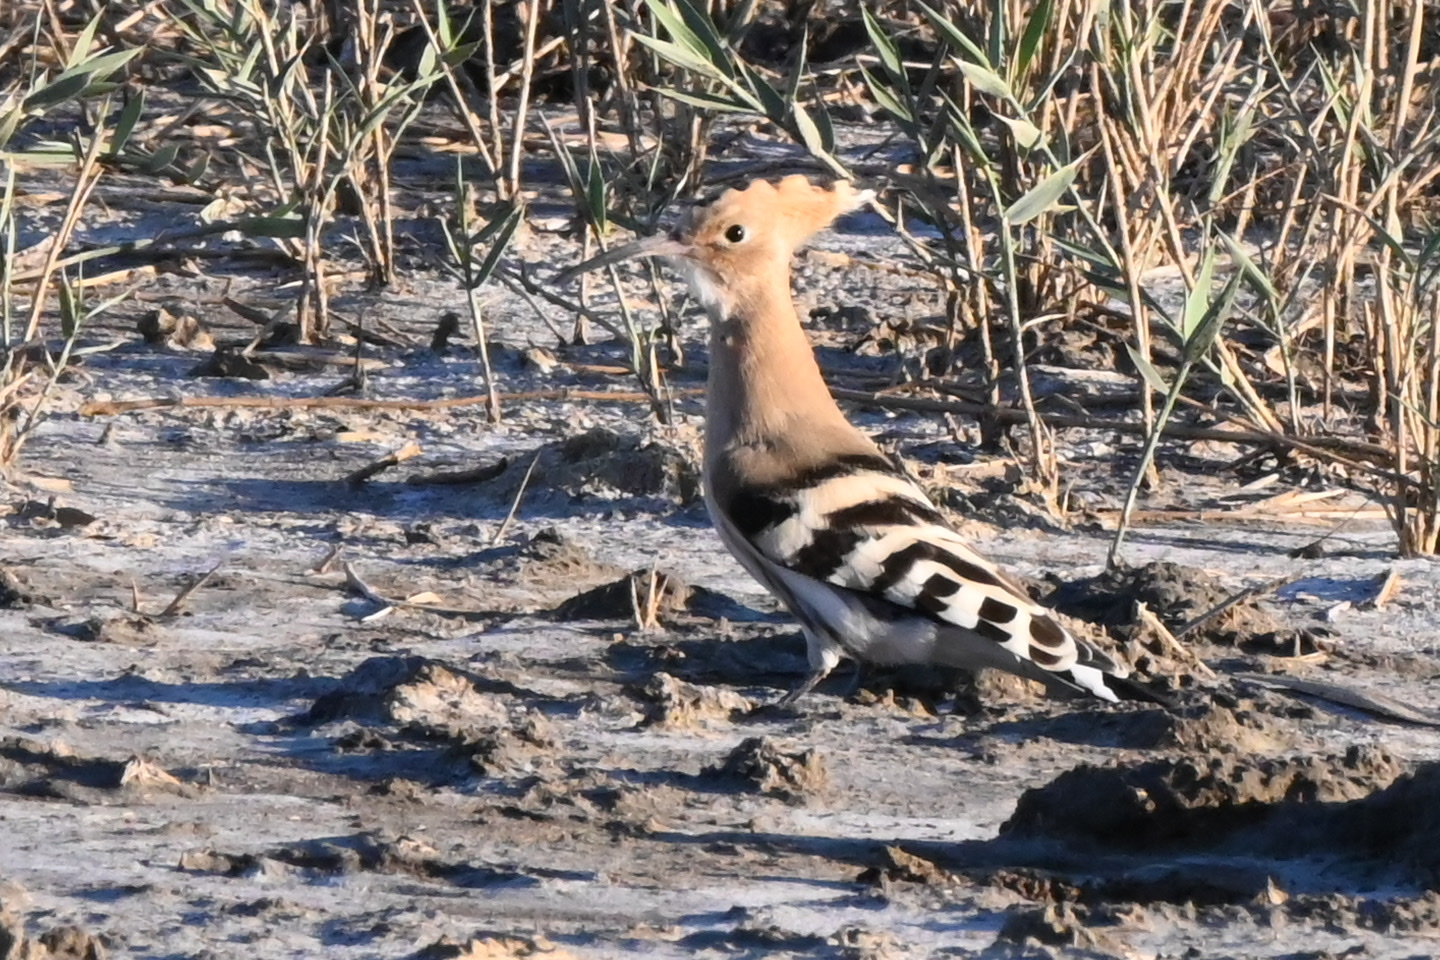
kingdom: Animalia
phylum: Chordata
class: Aves
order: Bucerotiformes
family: Upupidae
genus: Upupa
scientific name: Upupa epops
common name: Eurasian hoopoe
